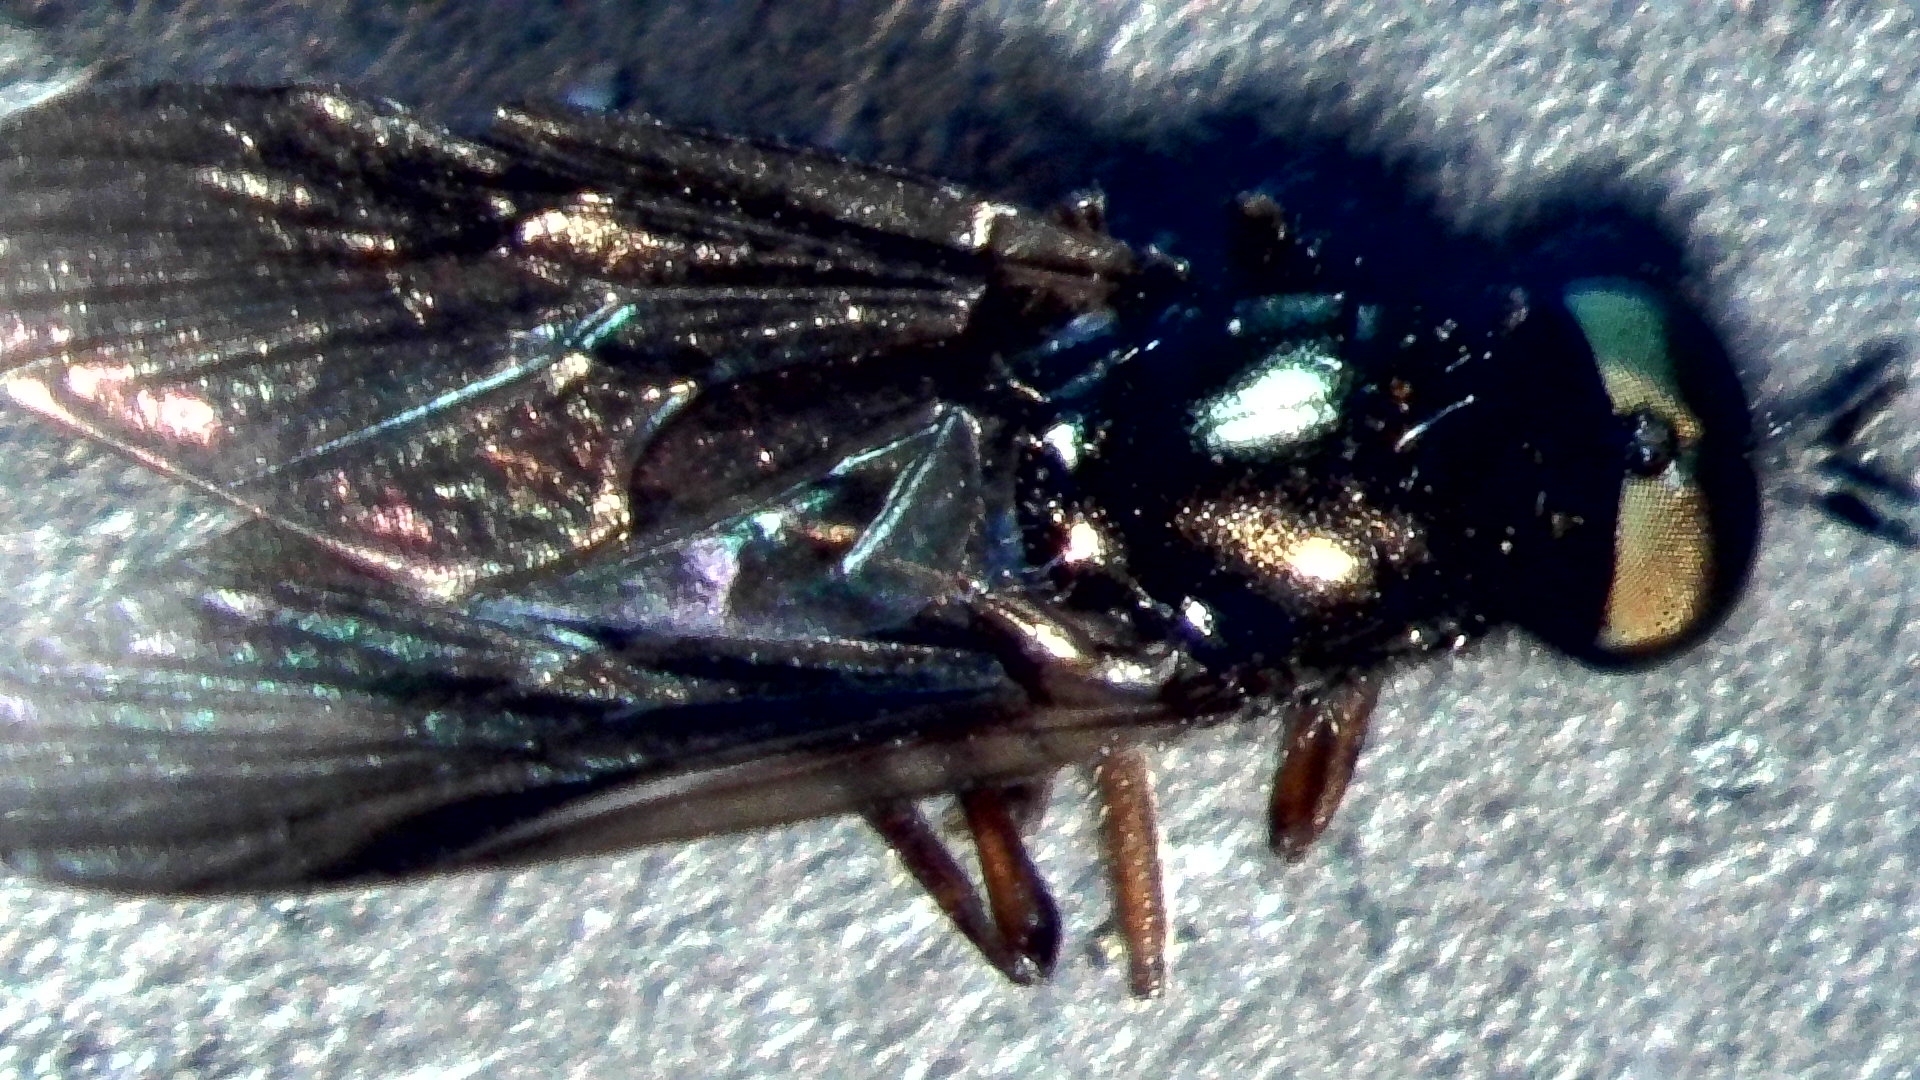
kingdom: Animalia
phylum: Arthropoda
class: Insecta
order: Diptera
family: Stratiomyidae
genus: Beris
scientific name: Beris chalybata
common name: Murky-legged black legionnaire
